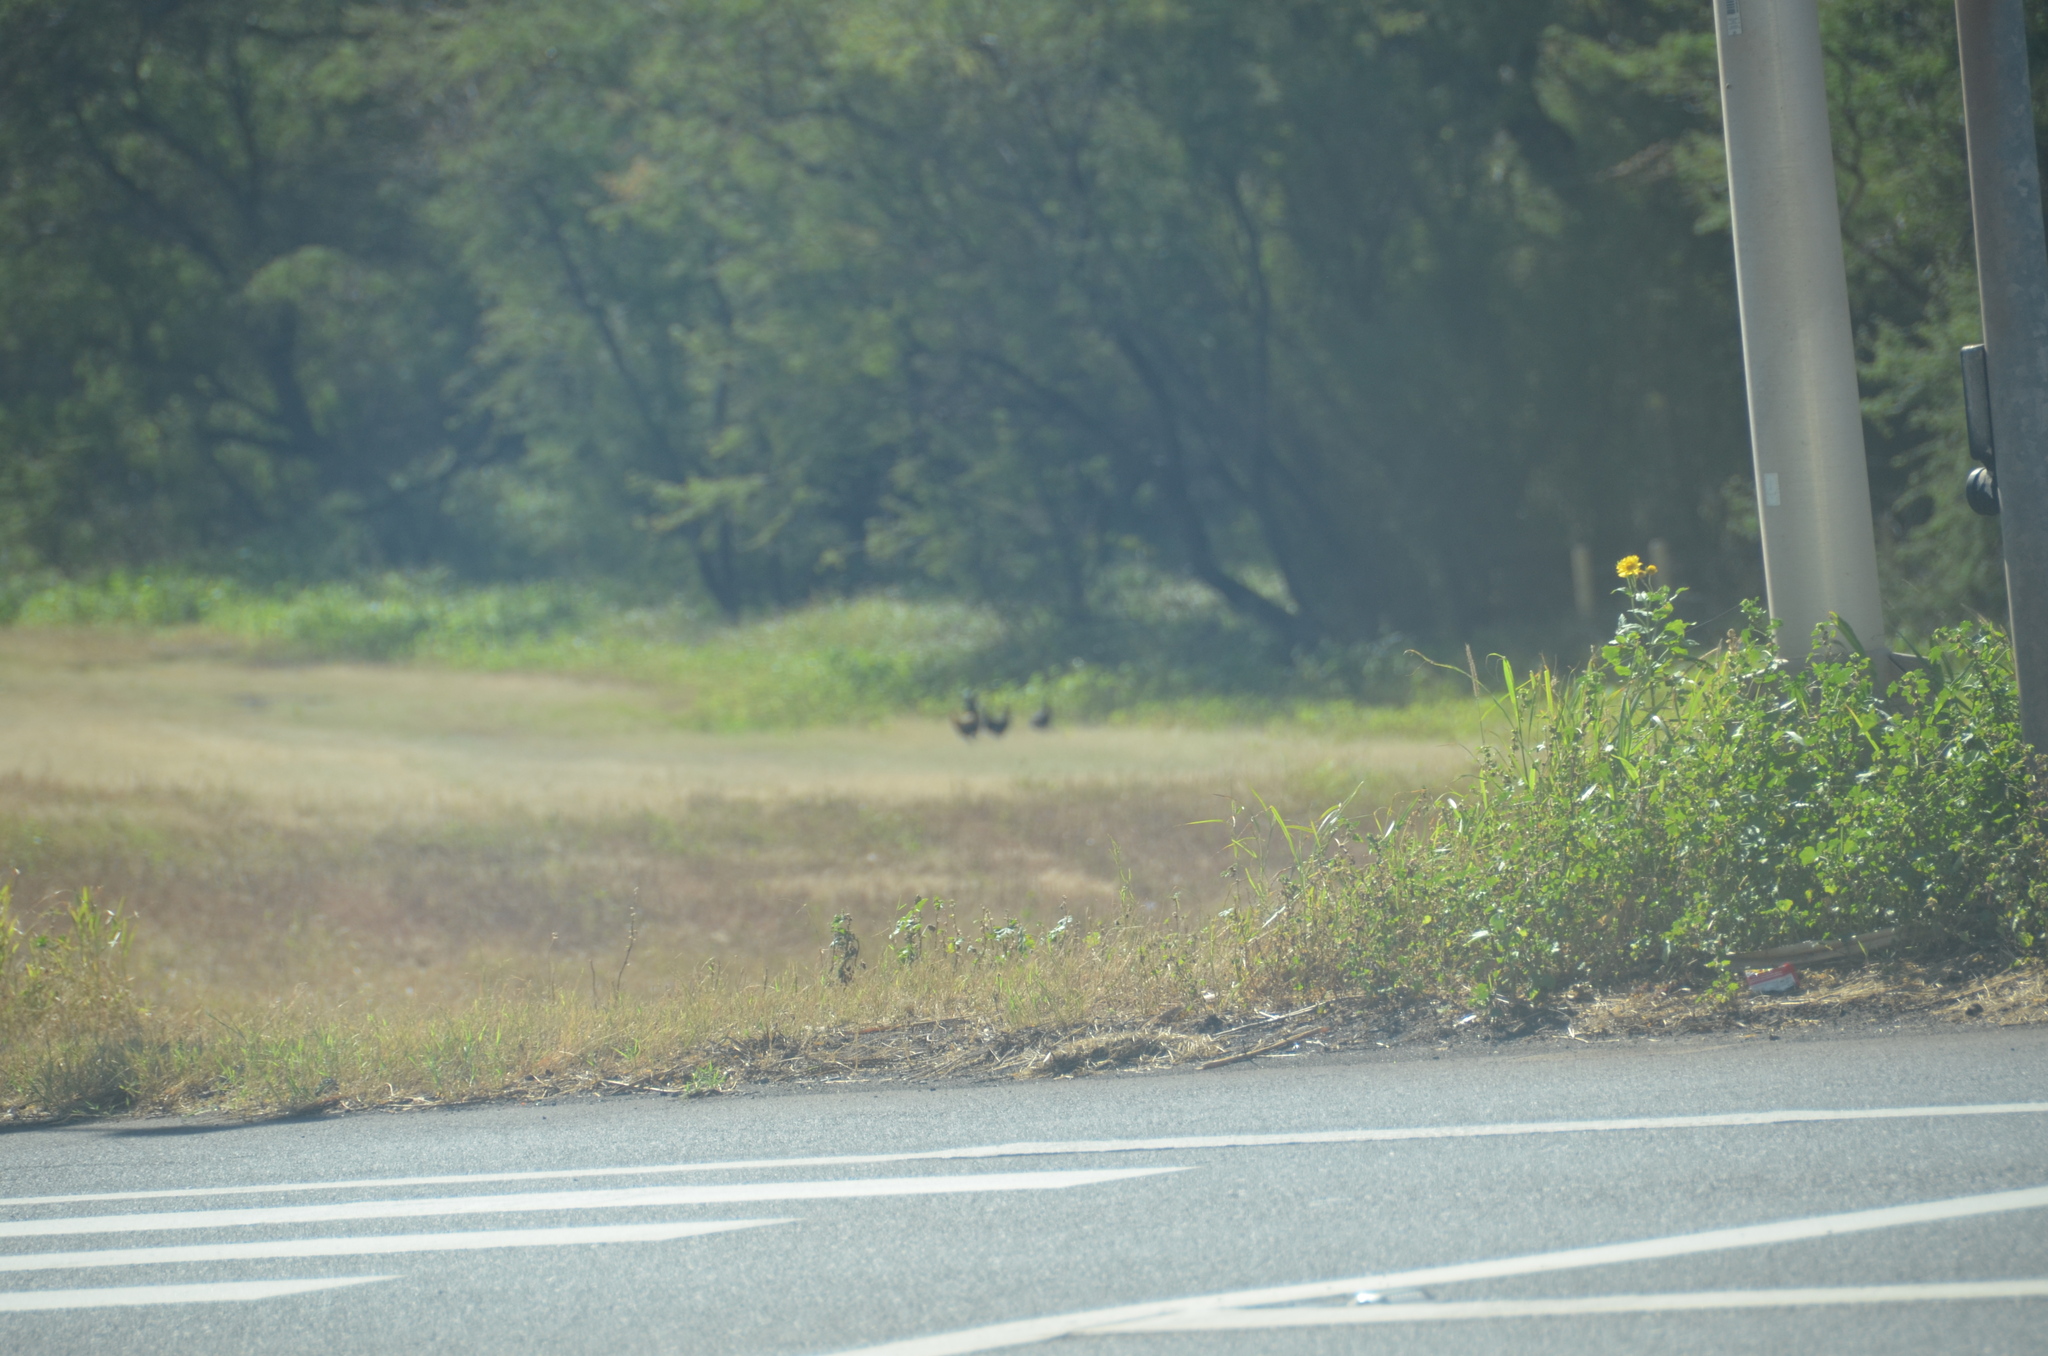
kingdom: Animalia
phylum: Chordata
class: Aves
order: Galliformes
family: Phasianidae
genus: Gallus
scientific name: Gallus gallus
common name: Red junglefowl
